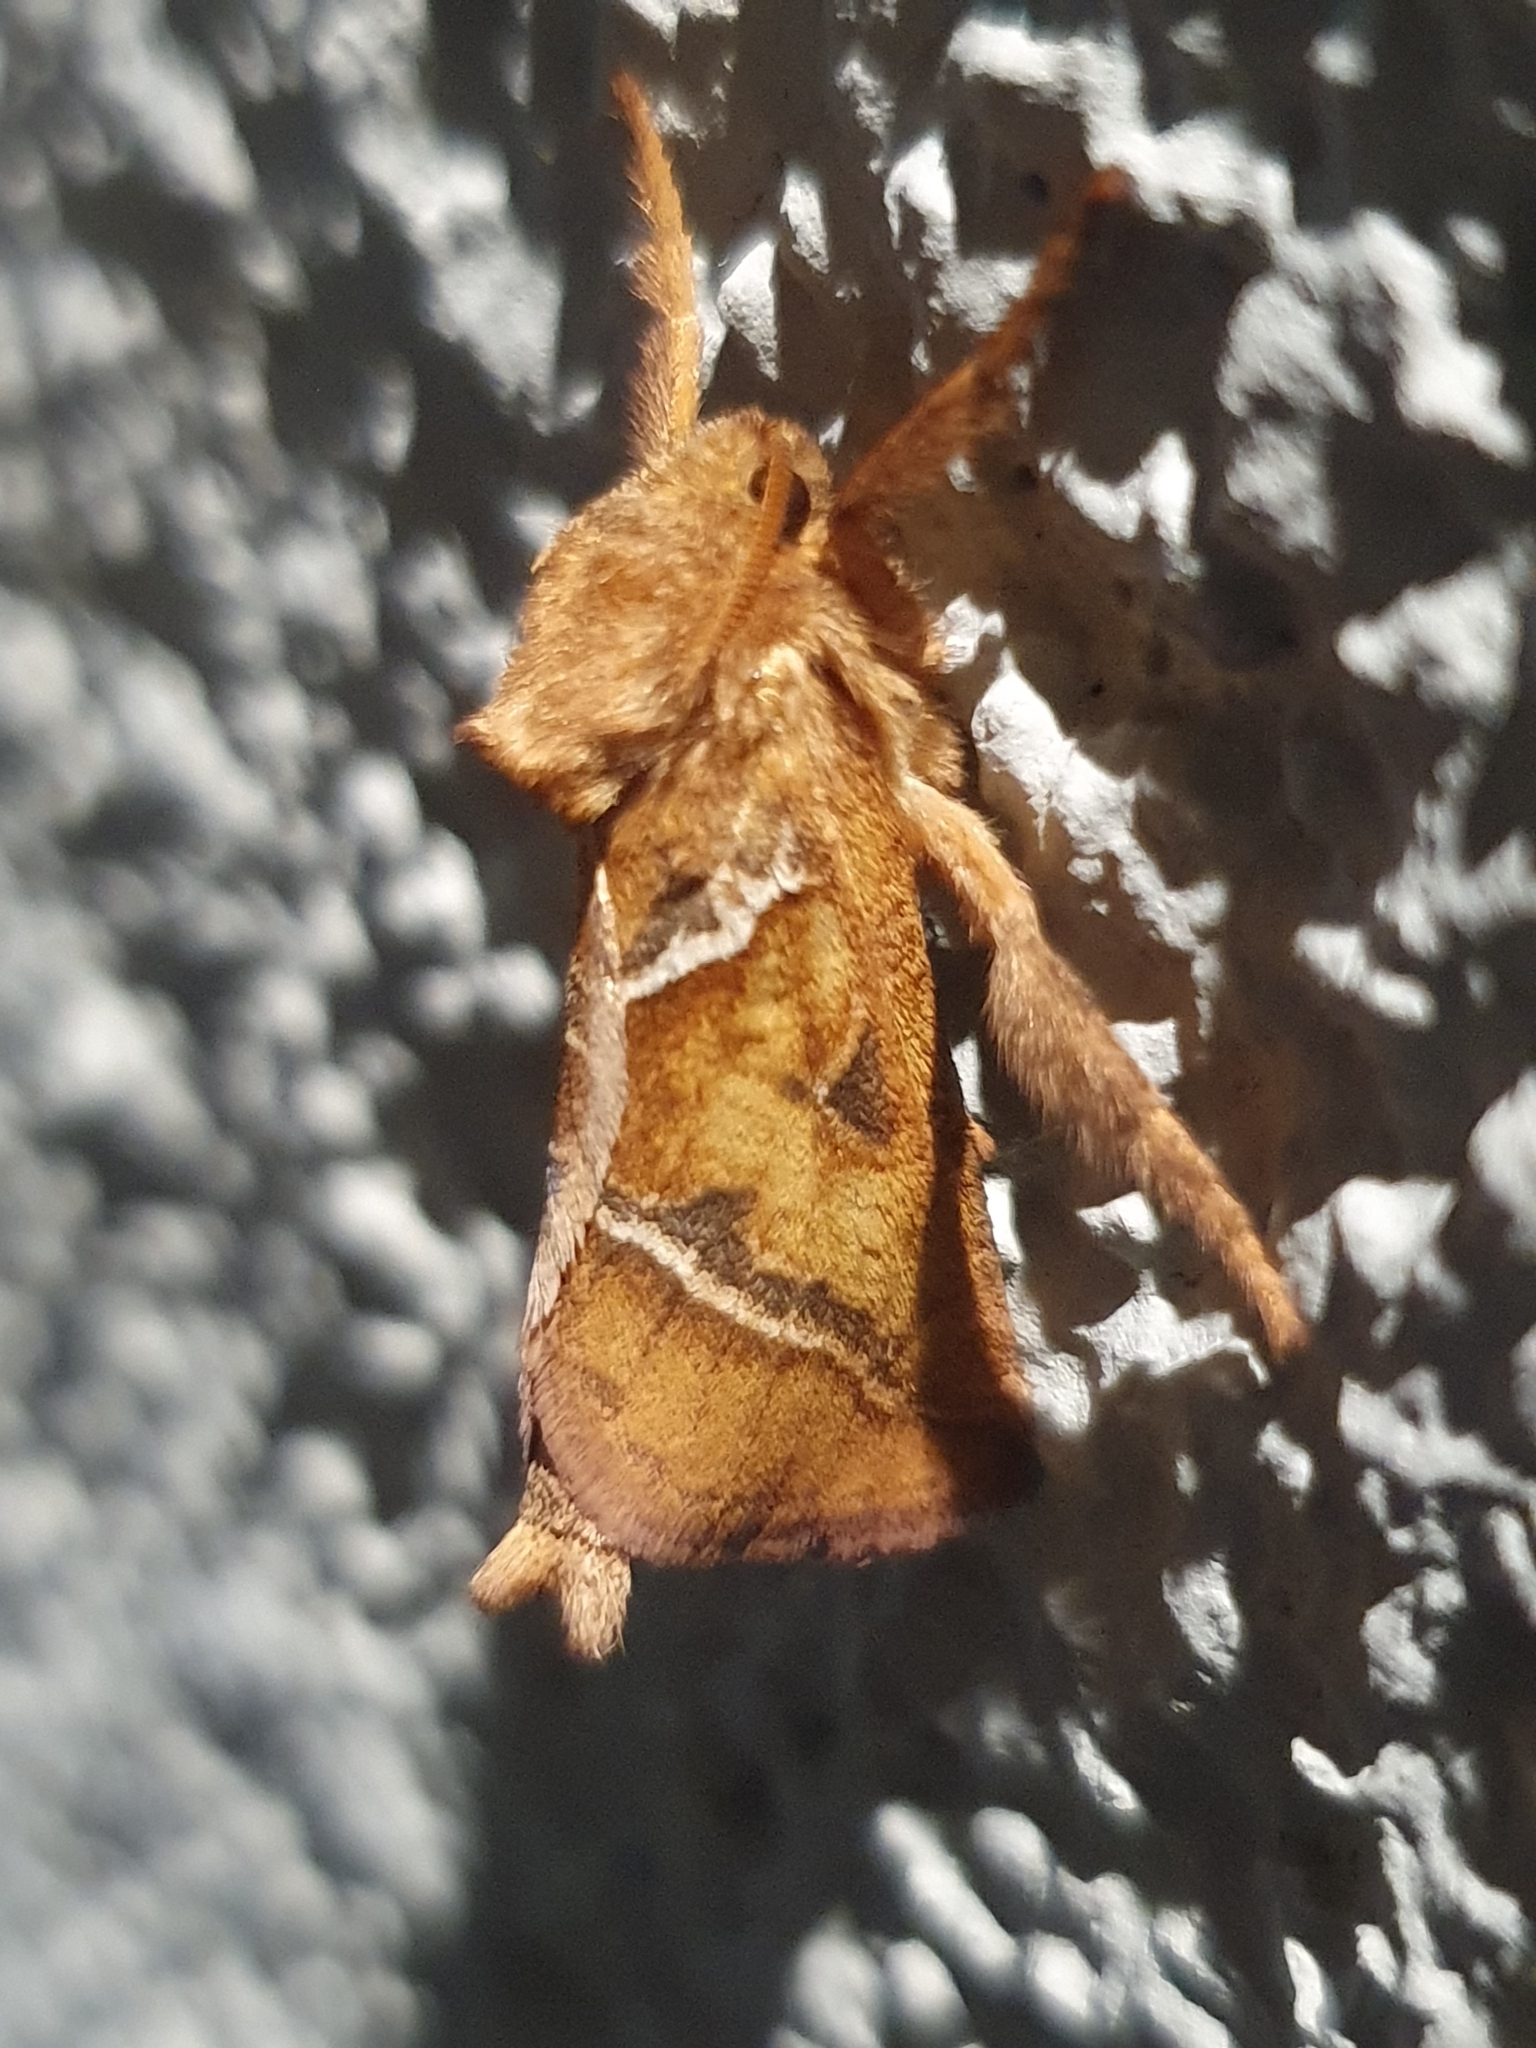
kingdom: Animalia
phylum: Arthropoda
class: Insecta
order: Lepidoptera
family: Hepialidae
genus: Triodia
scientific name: Triodia sylvina
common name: Orange swift
